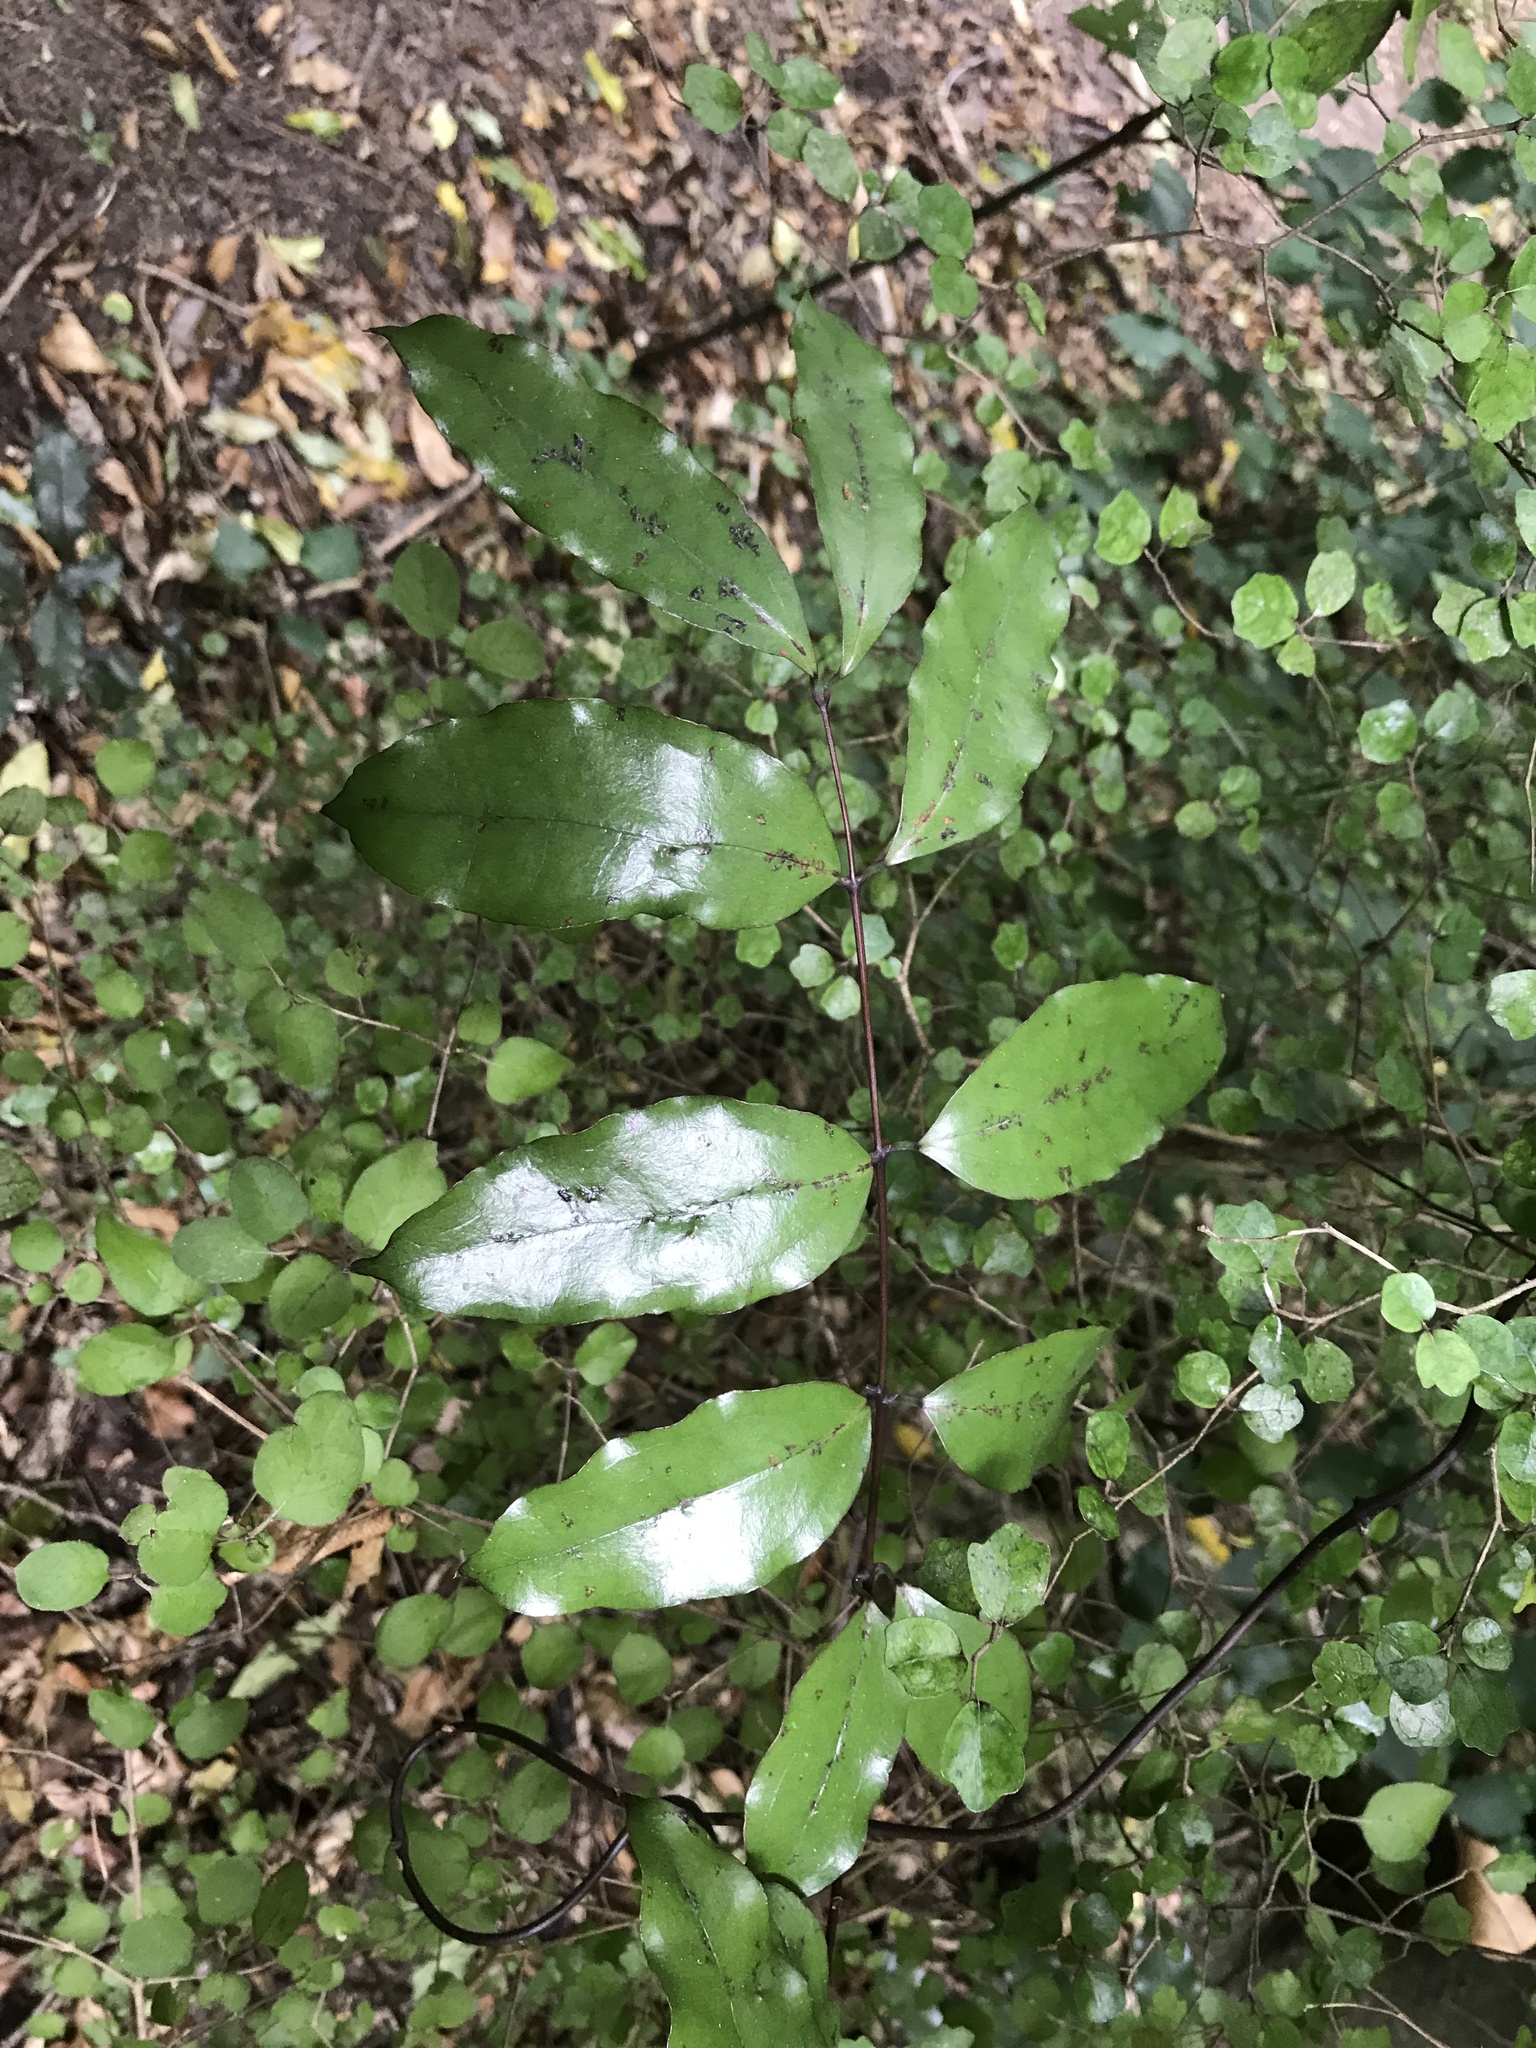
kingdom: Plantae
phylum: Tracheophyta
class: Liliopsida
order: Liliales
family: Ripogonaceae
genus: Ripogonum
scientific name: Ripogonum scandens
